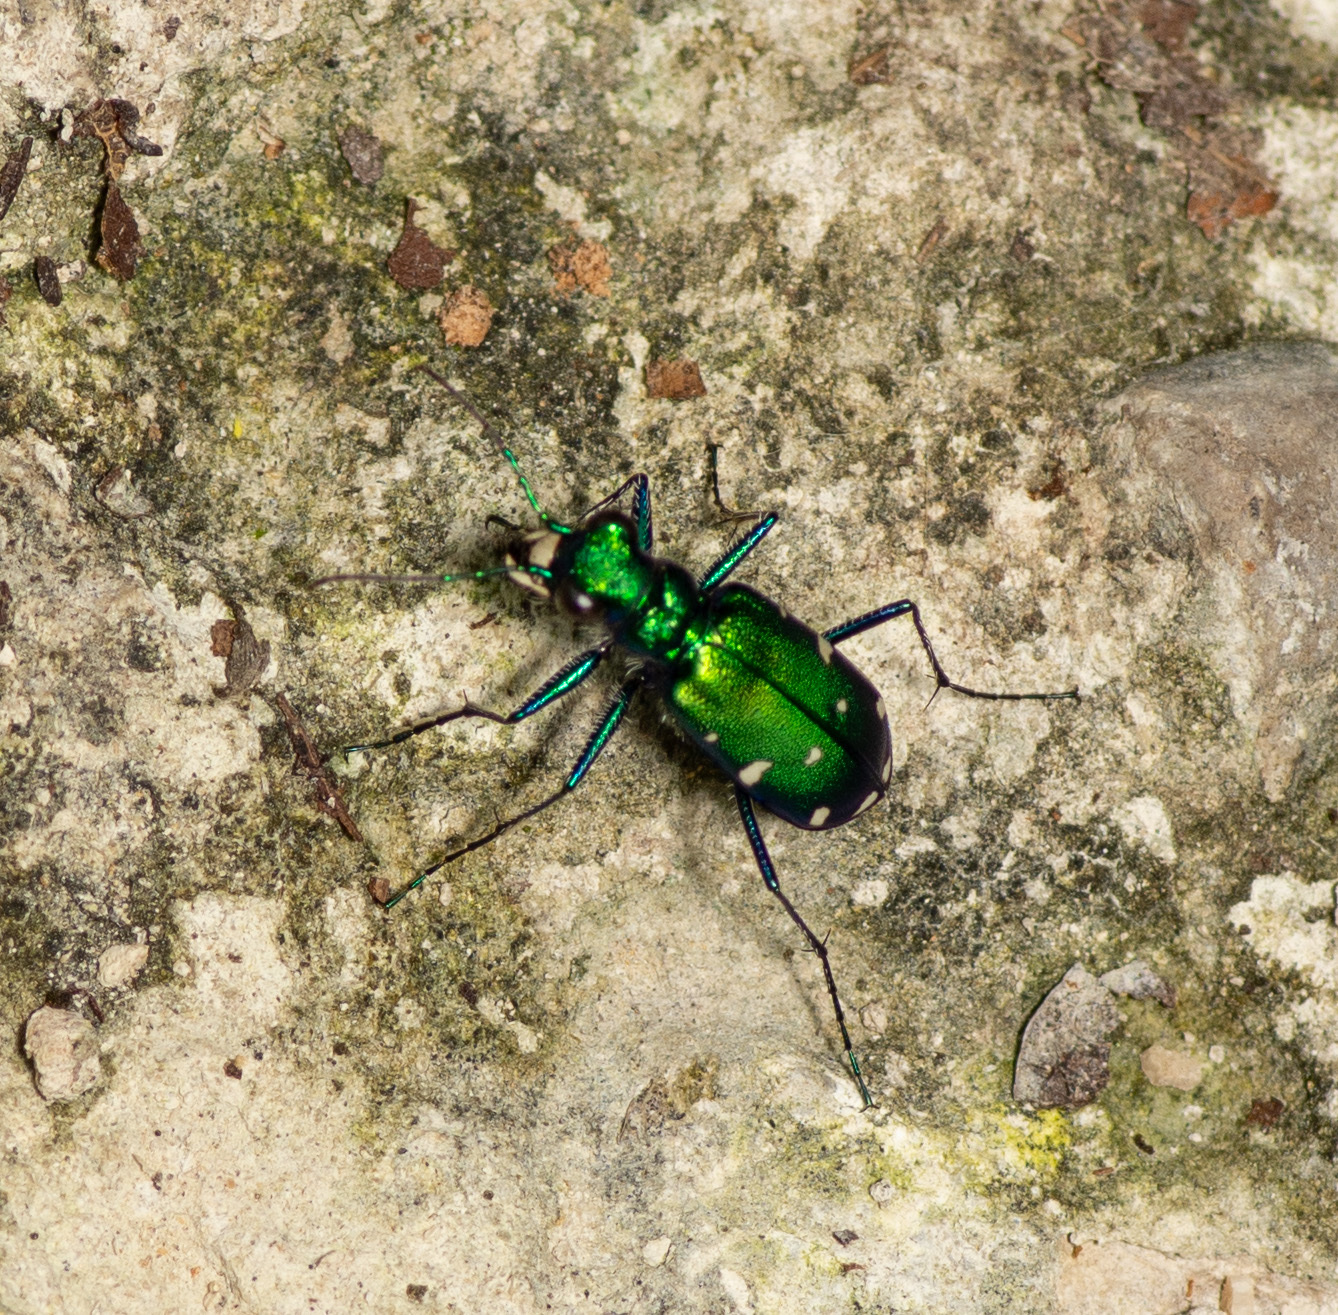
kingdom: Animalia
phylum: Arthropoda
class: Insecta
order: Coleoptera
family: Carabidae
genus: Cicindela
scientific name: Cicindela sexguttata
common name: Six-spotted tiger beetle
